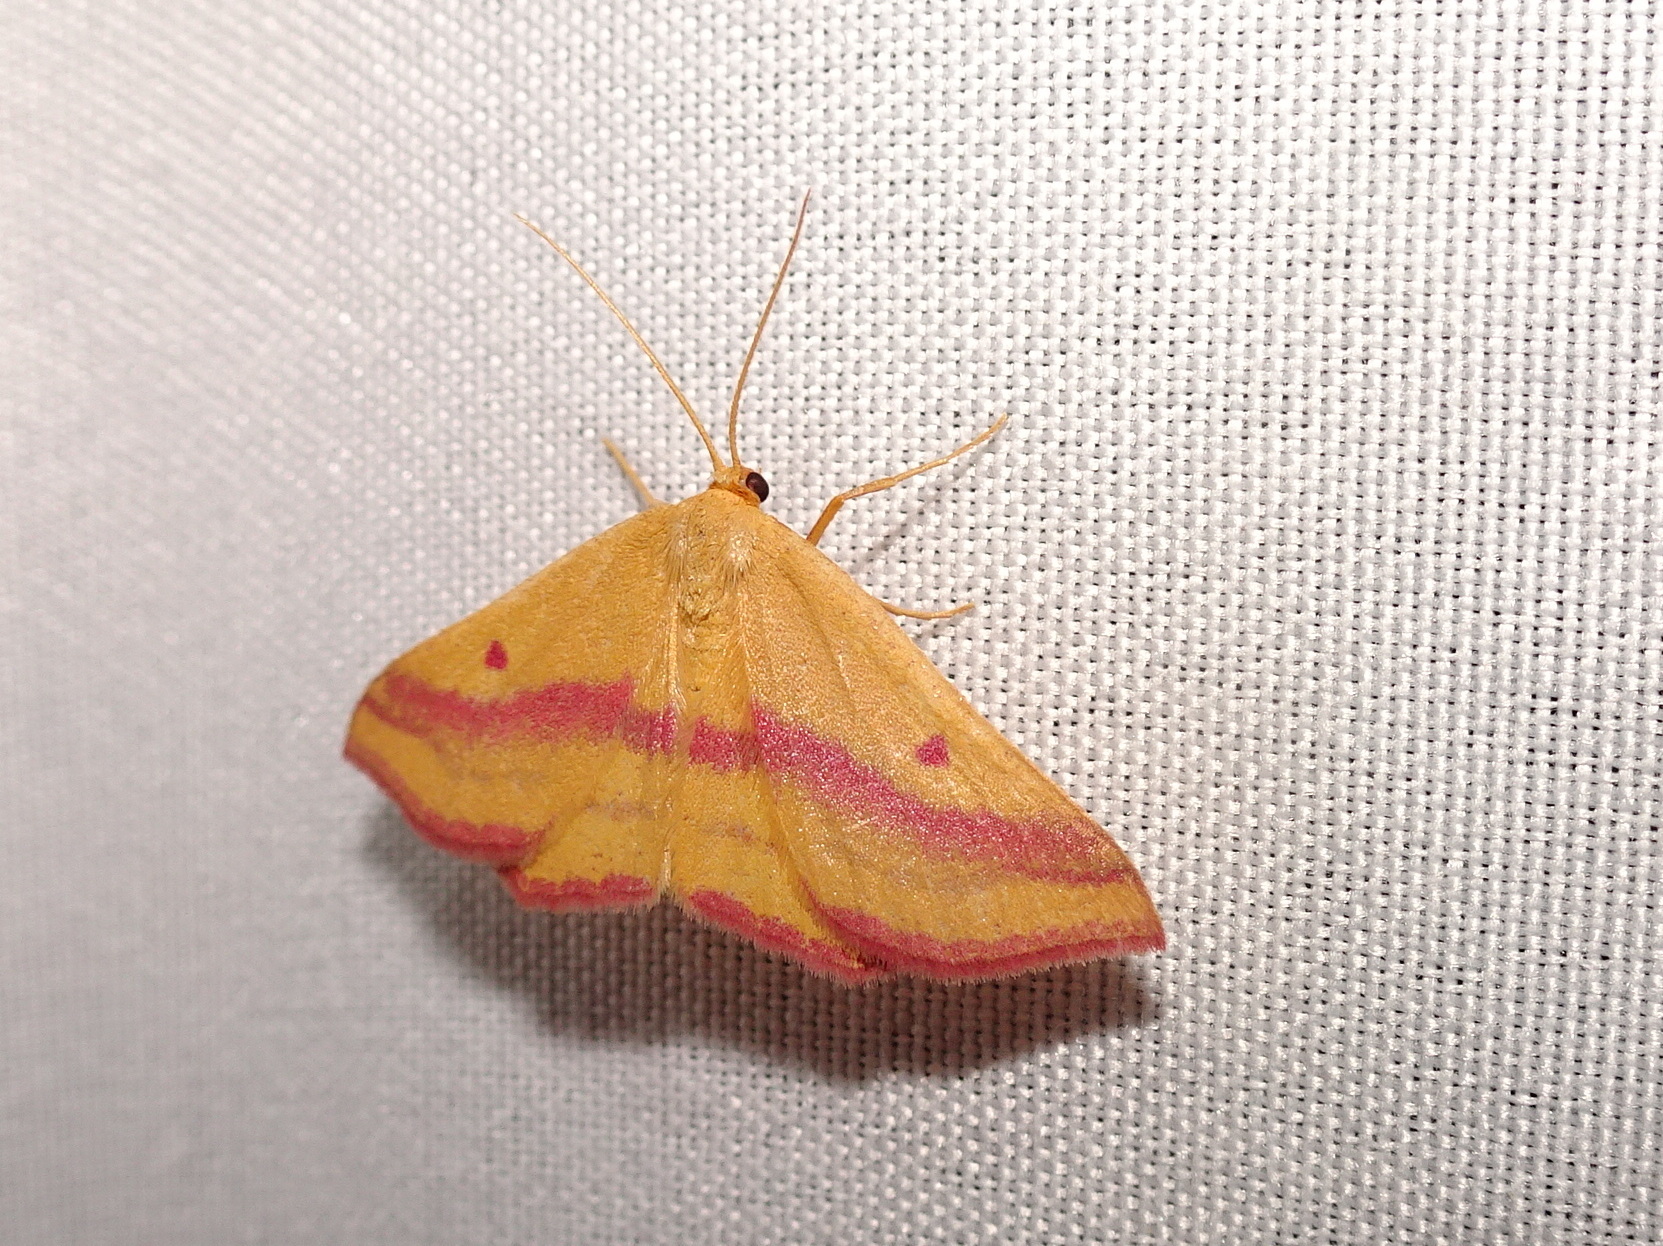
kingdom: Animalia
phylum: Arthropoda
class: Insecta
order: Lepidoptera
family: Geometridae
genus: Haematopis
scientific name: Haematopis grataria
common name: Chickweed geometer
